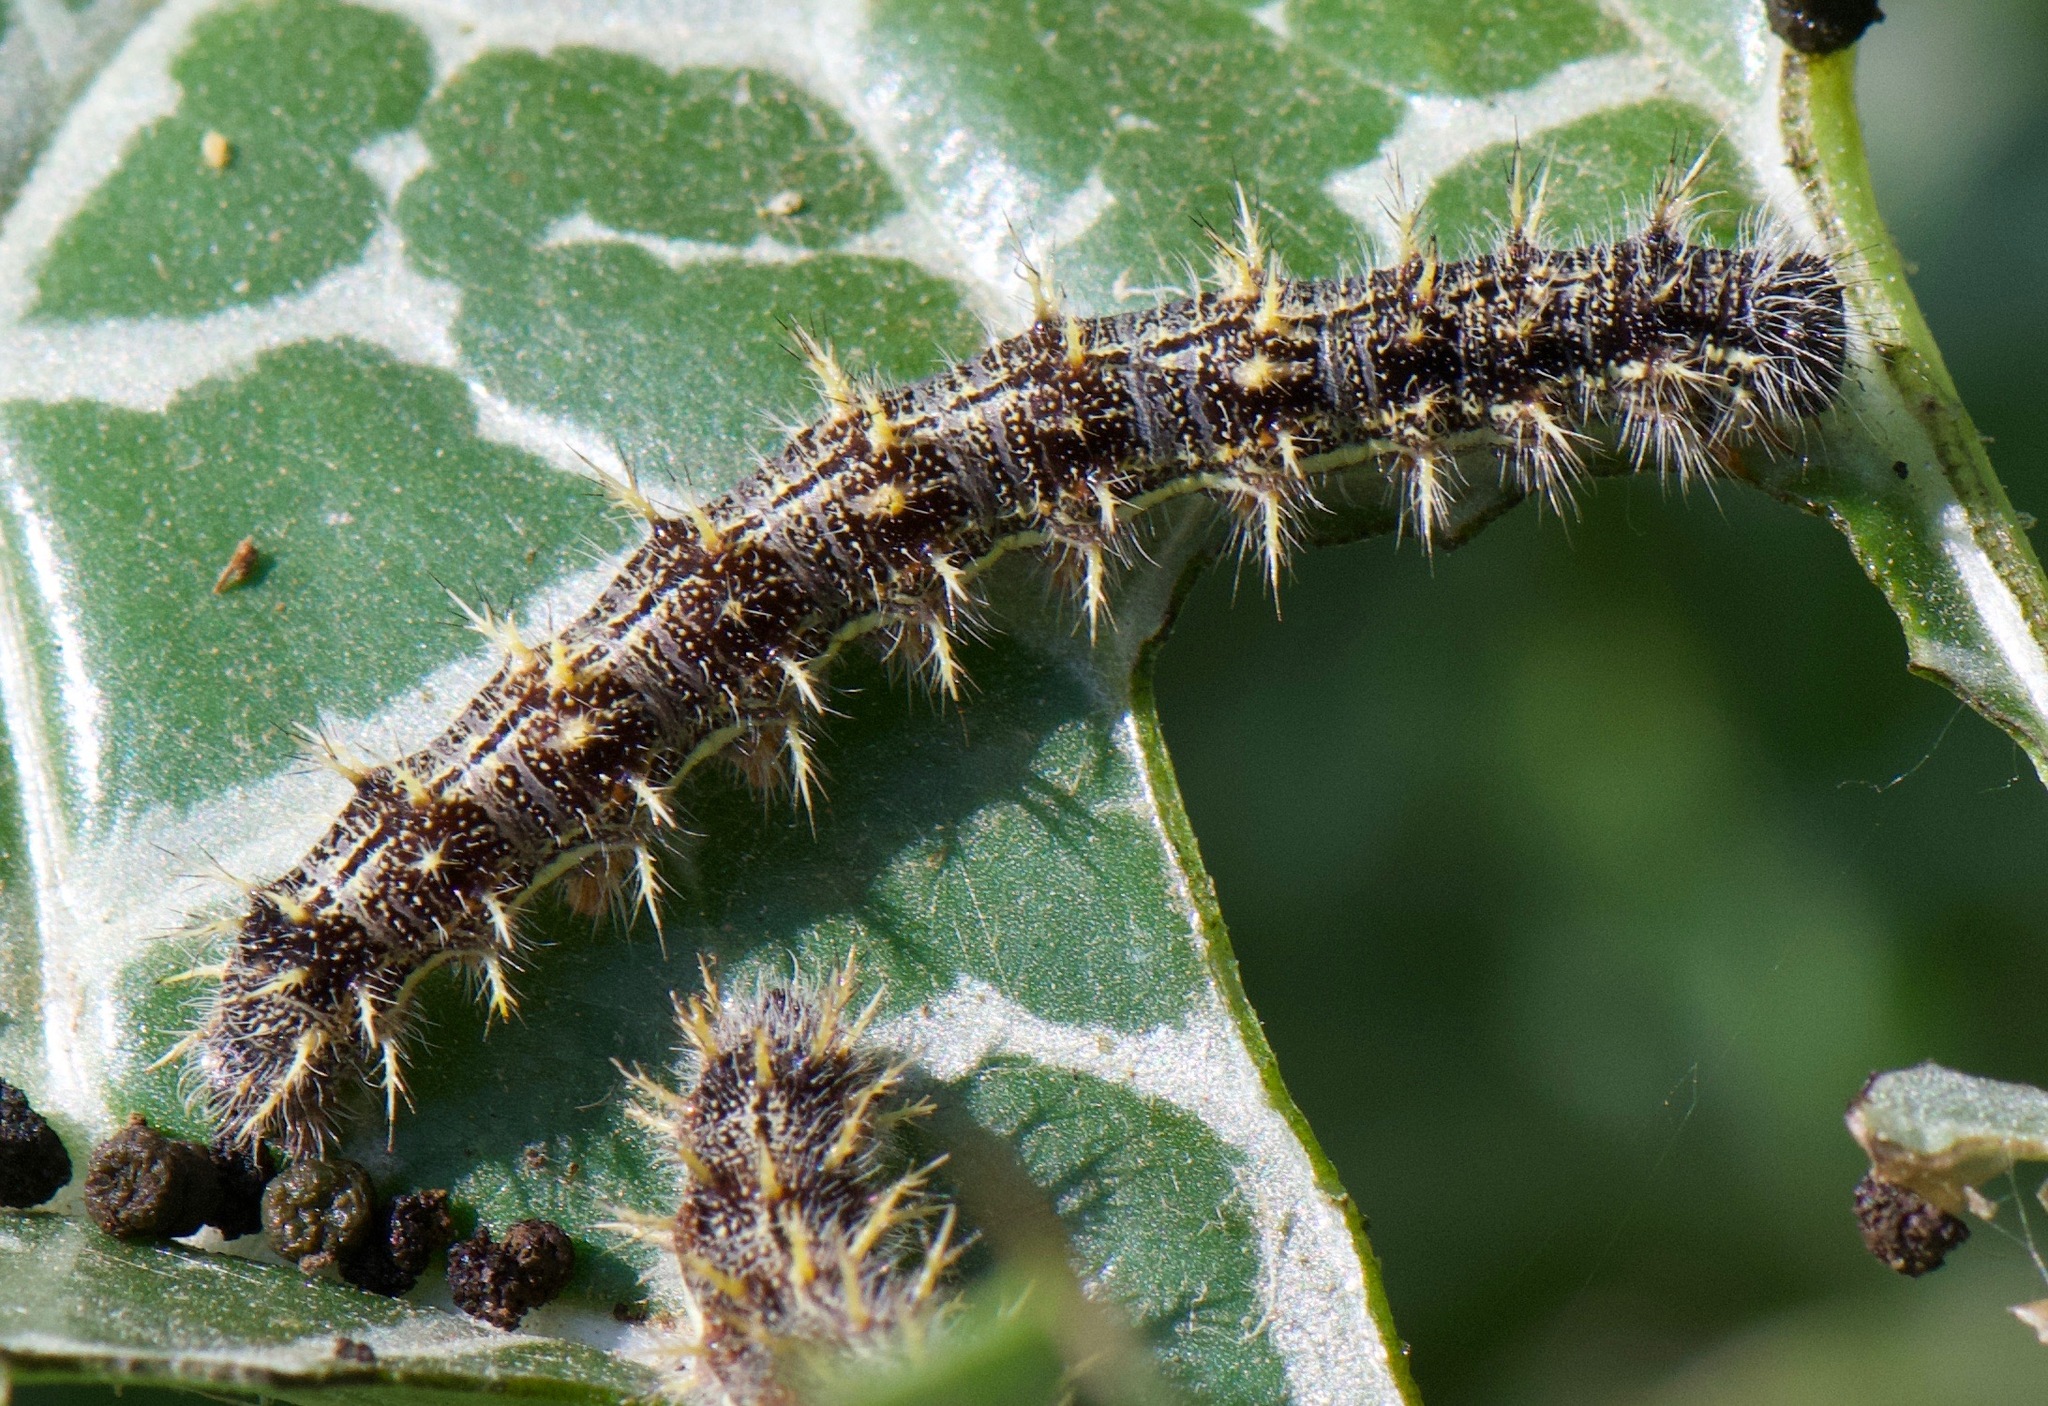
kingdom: Animalia
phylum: Arthropoda
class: Insecta
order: Lepidoptera
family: Nymphalidae
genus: Vanessa
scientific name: Vanessa cardui
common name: Painted lady
